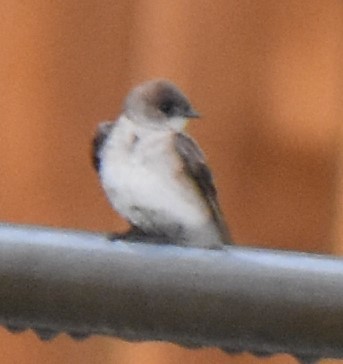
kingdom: Animalia
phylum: Chordata
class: Aves
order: Passeriformes
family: Hirundinidae
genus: Stelgidopteryx
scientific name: Stelgidopteryx serripennis
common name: Northern rough-winged swallow
